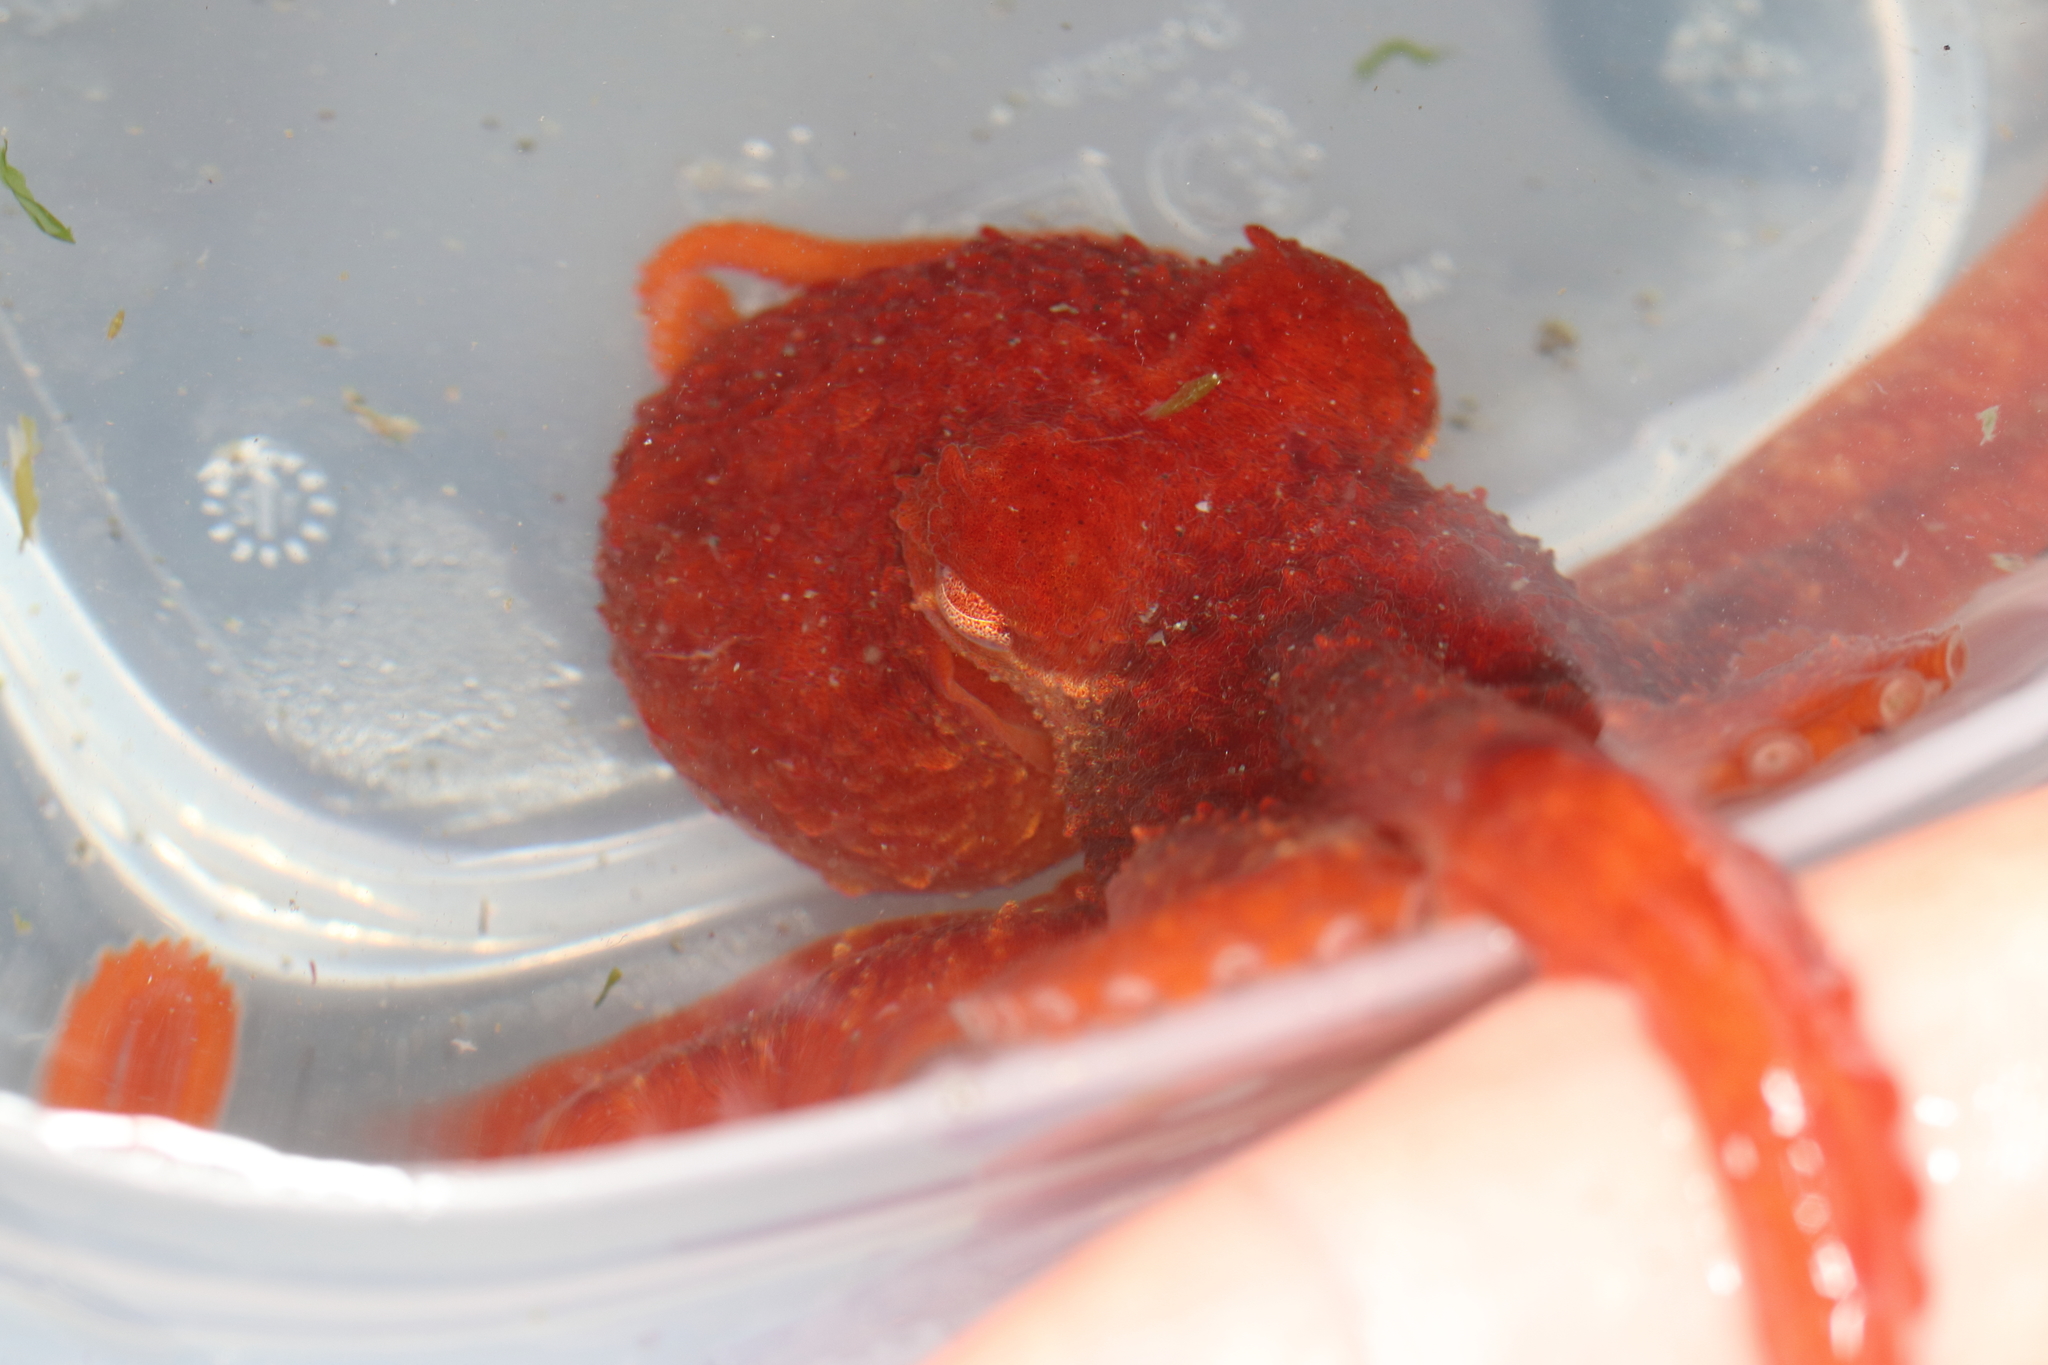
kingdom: Animalia
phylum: Mollusca
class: Cephalopoda
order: Octopoda
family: Enteroctopodidae
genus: Enteroctopus
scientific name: Enteroctopus dofleini
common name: Giant north pacific octopus
